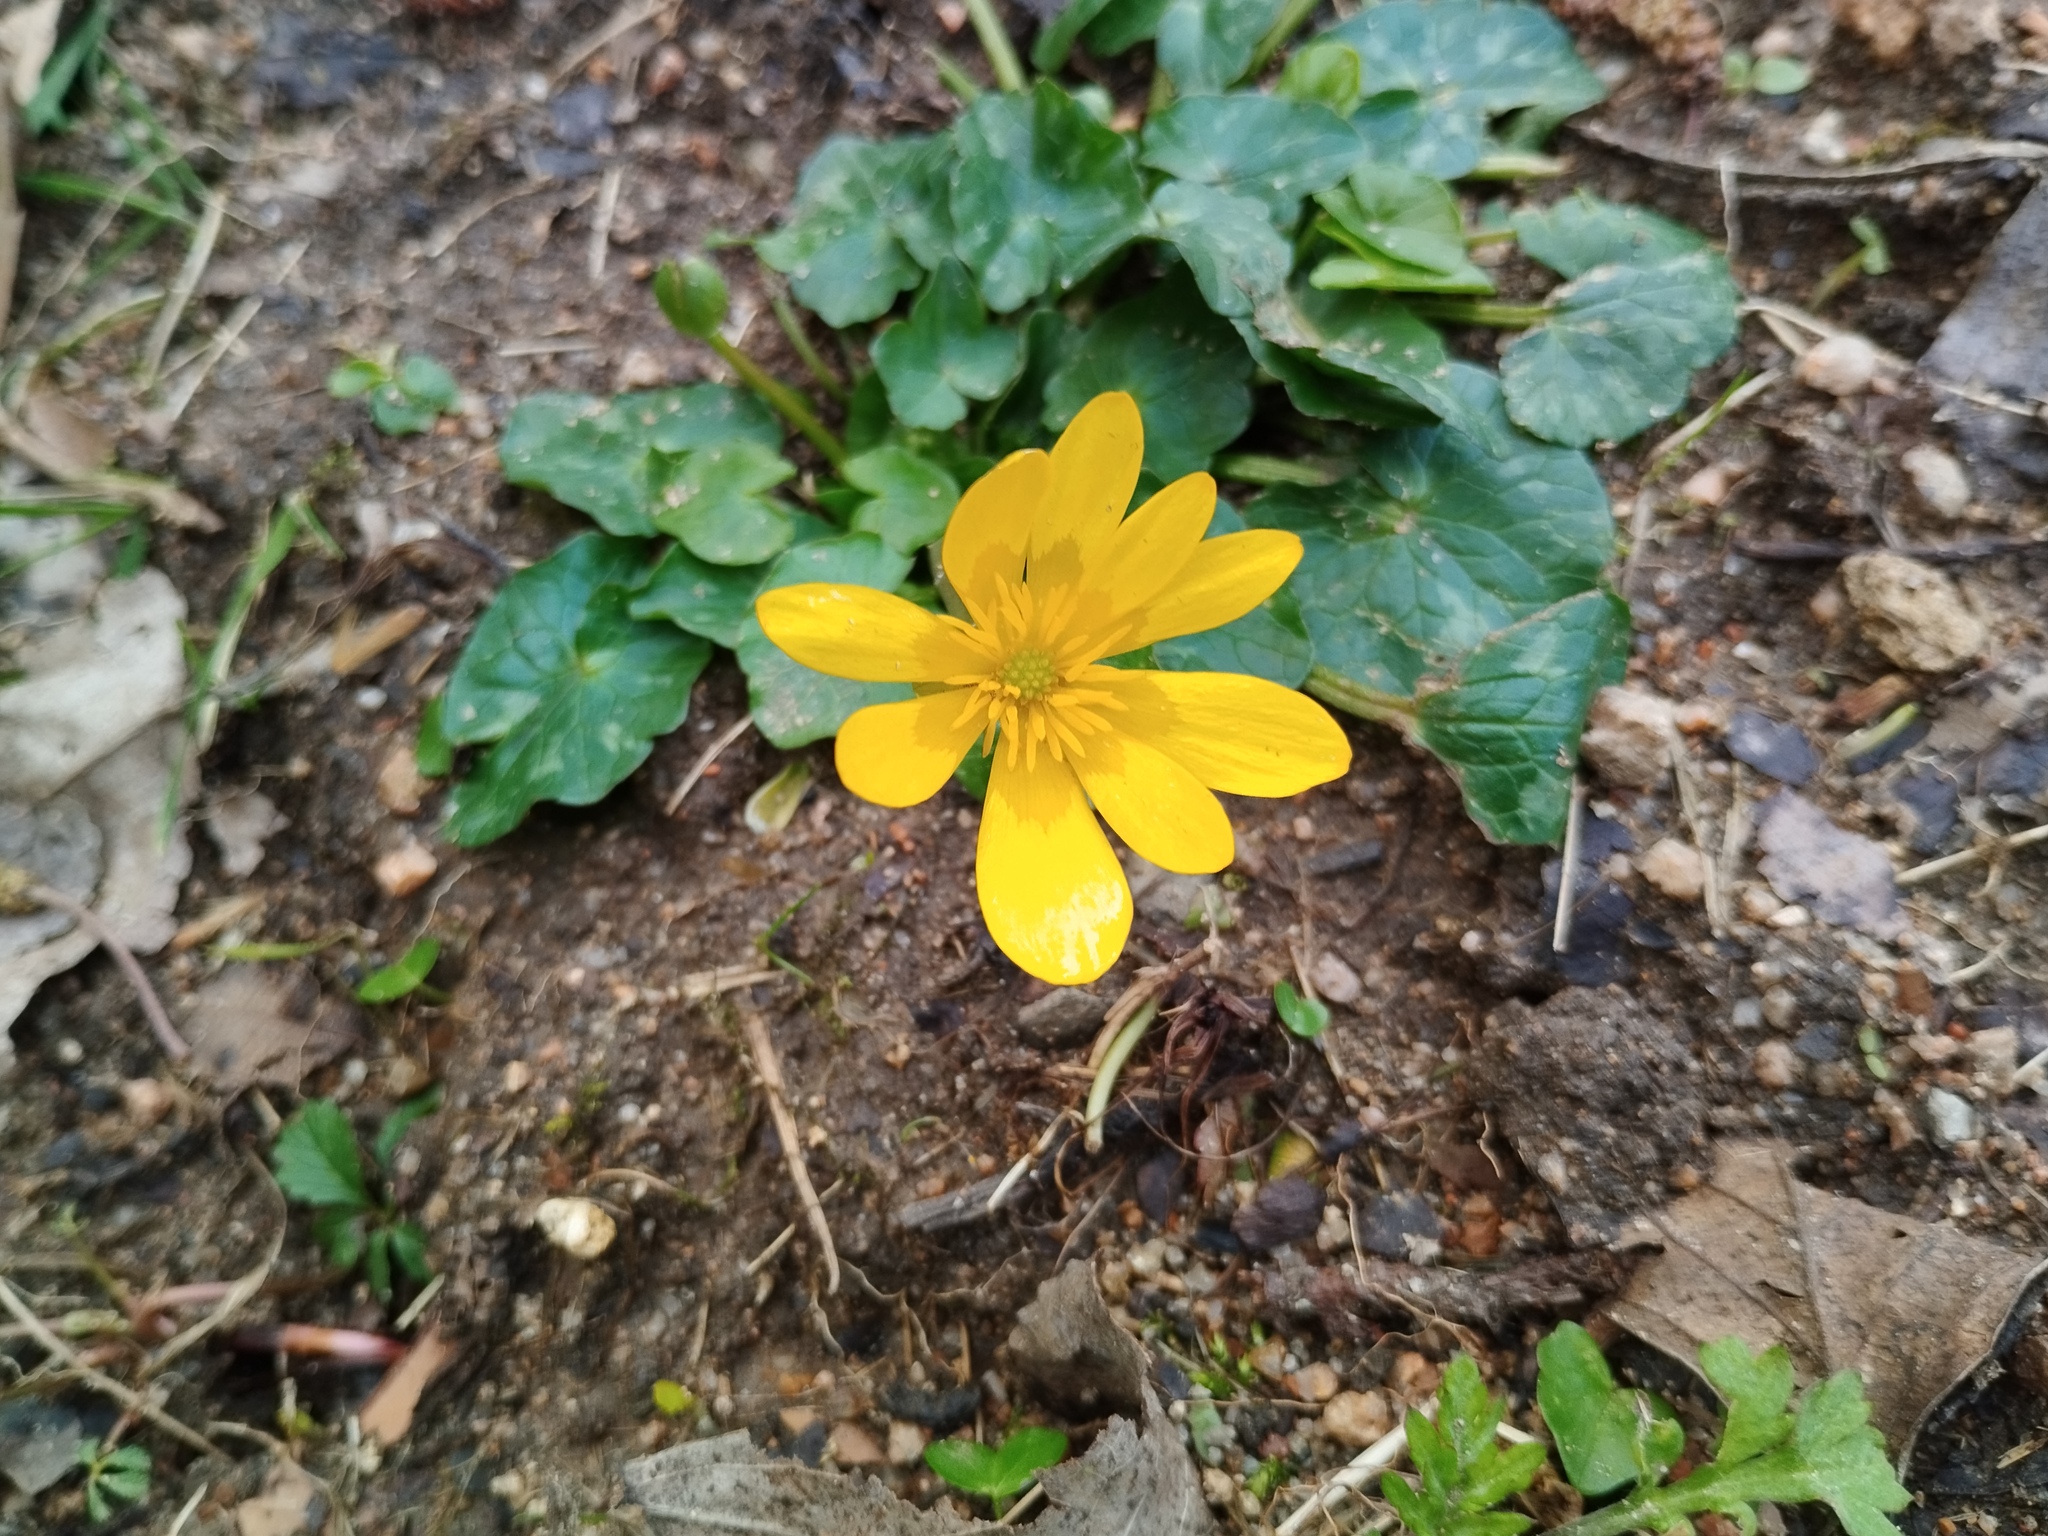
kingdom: Plantae
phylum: Tracheophyta
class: Magnoliopsida
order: Ranunculales
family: Ranunculaceae
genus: Ficaria
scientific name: Ficaria verna
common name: Lesser celandine
